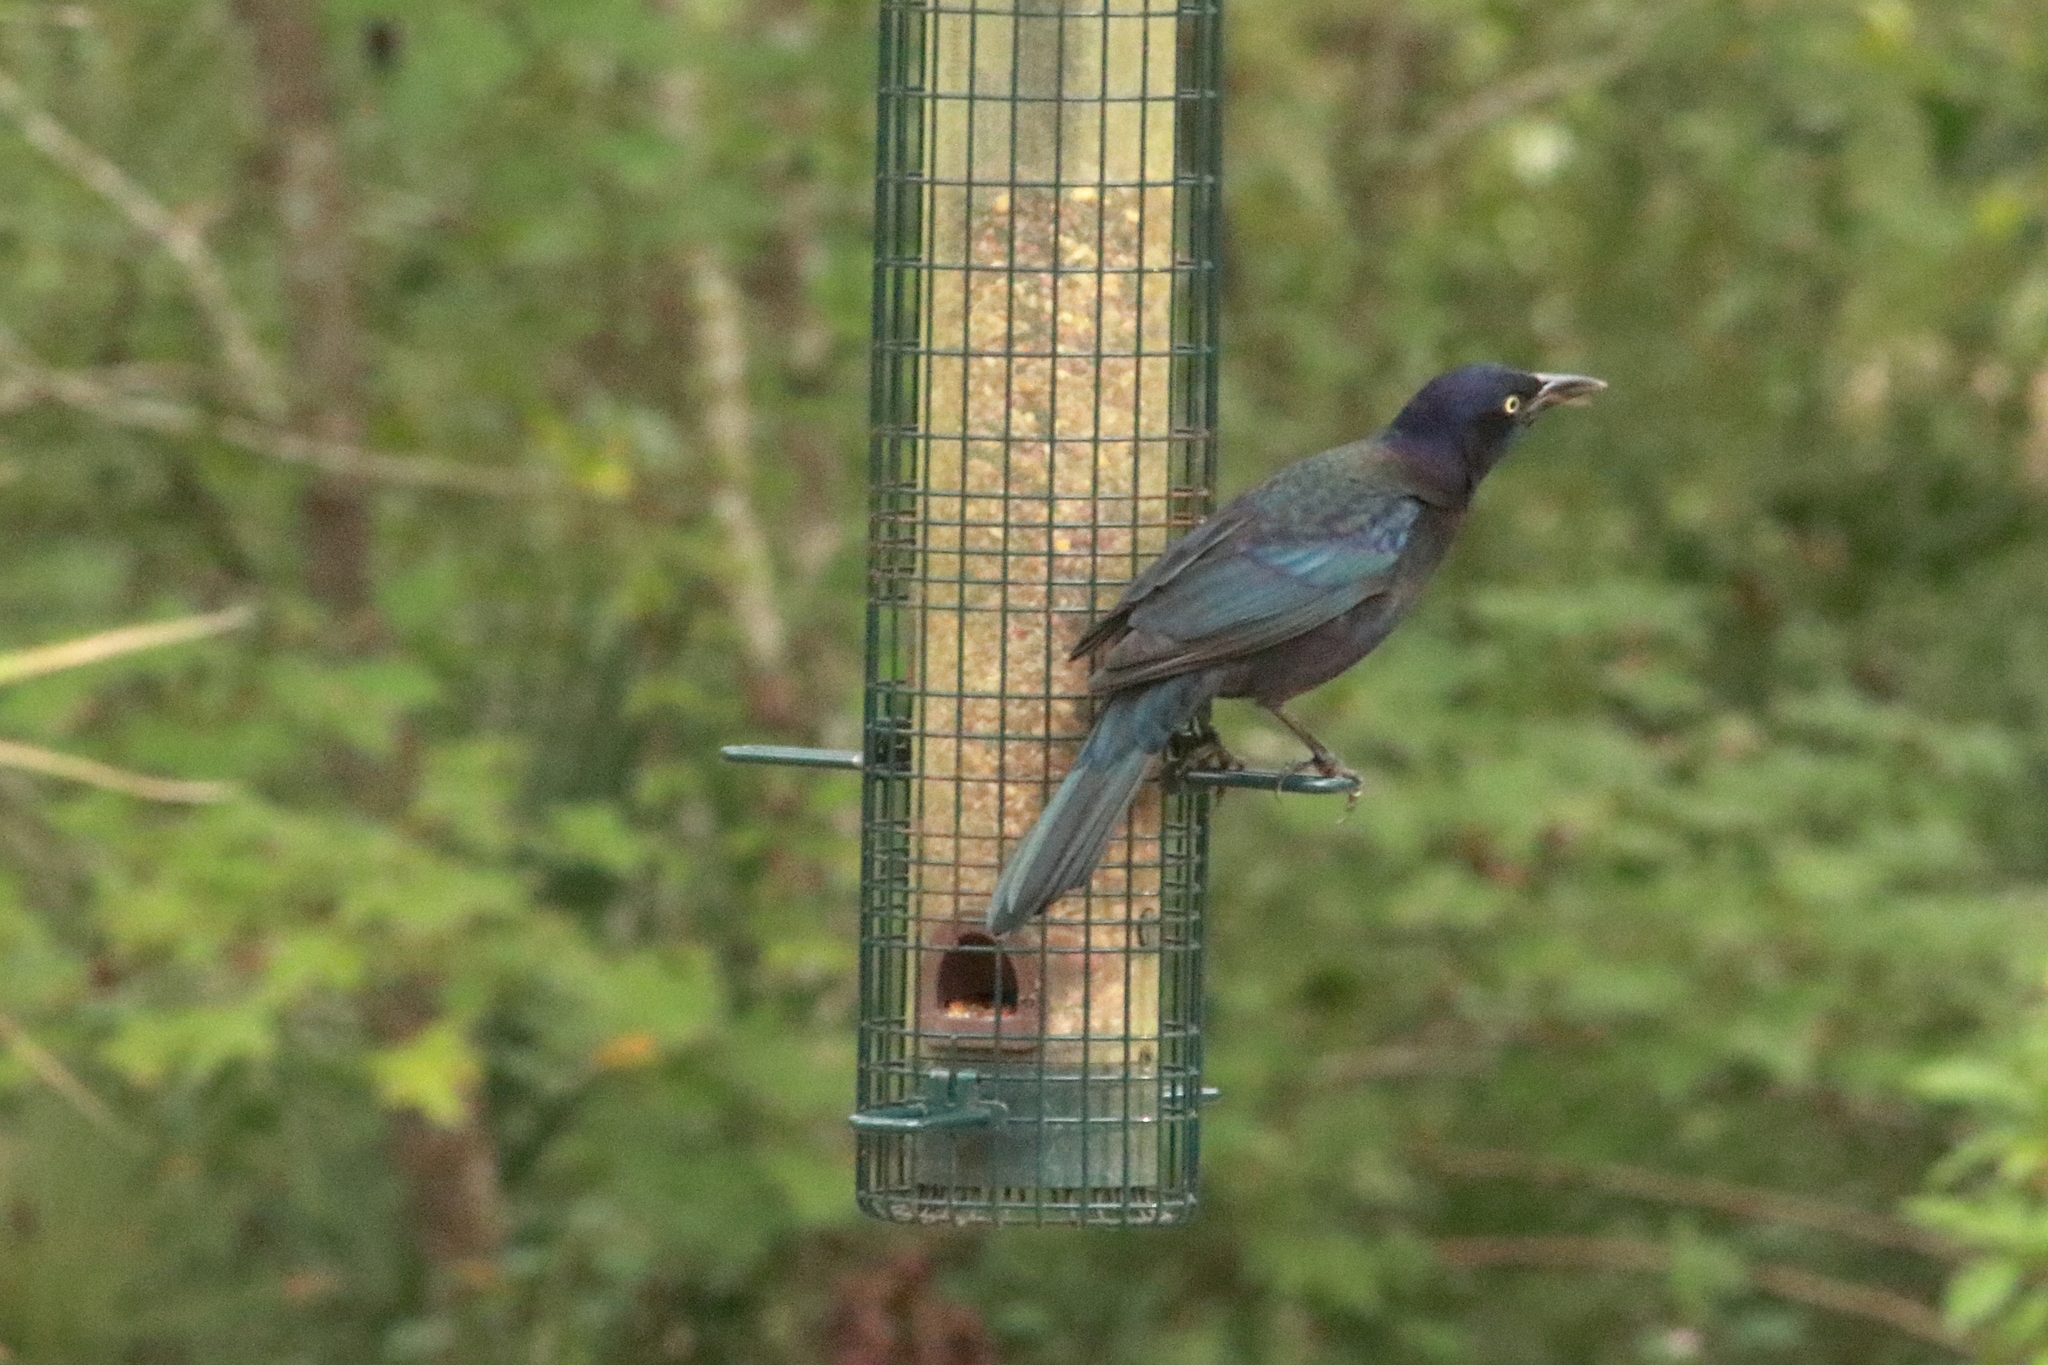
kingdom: Animalia
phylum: Chordata
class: Aves
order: Passeriformes
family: Icteridae
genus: Quiscalus
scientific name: Quiscalus quiscula
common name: Common grackle
